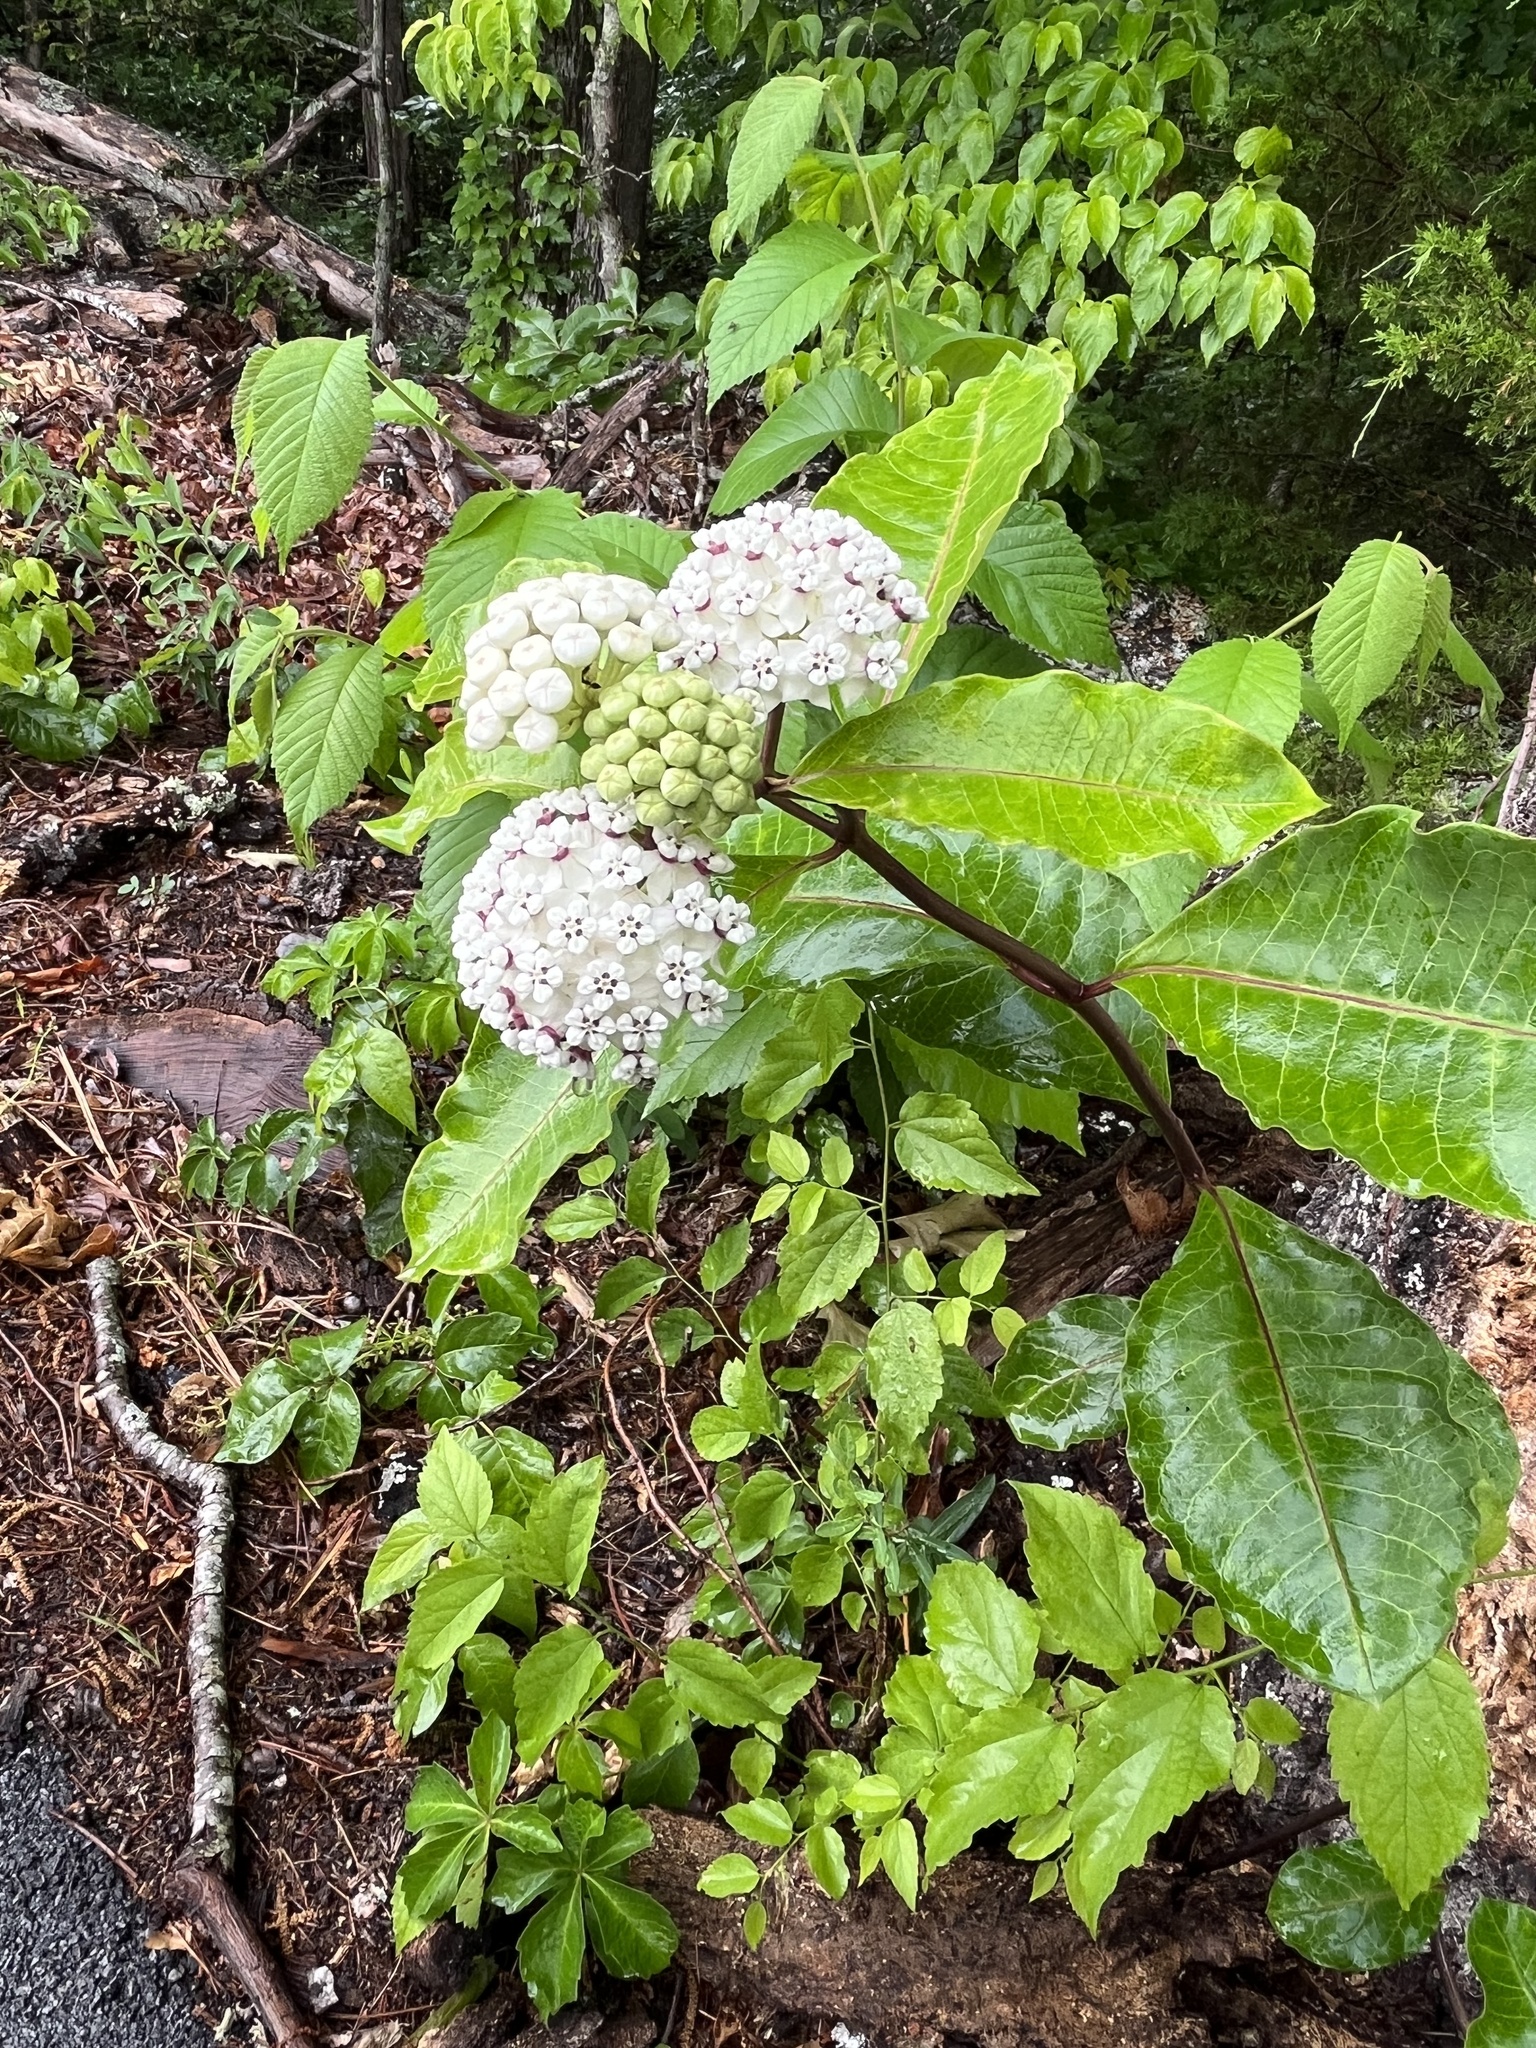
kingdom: Plantae
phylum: Tracheophyta
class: Magnoliopsida
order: Gentianales
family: Apocynaceae
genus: Asclepias
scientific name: Asclepias variegata
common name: Variegated milkweed
